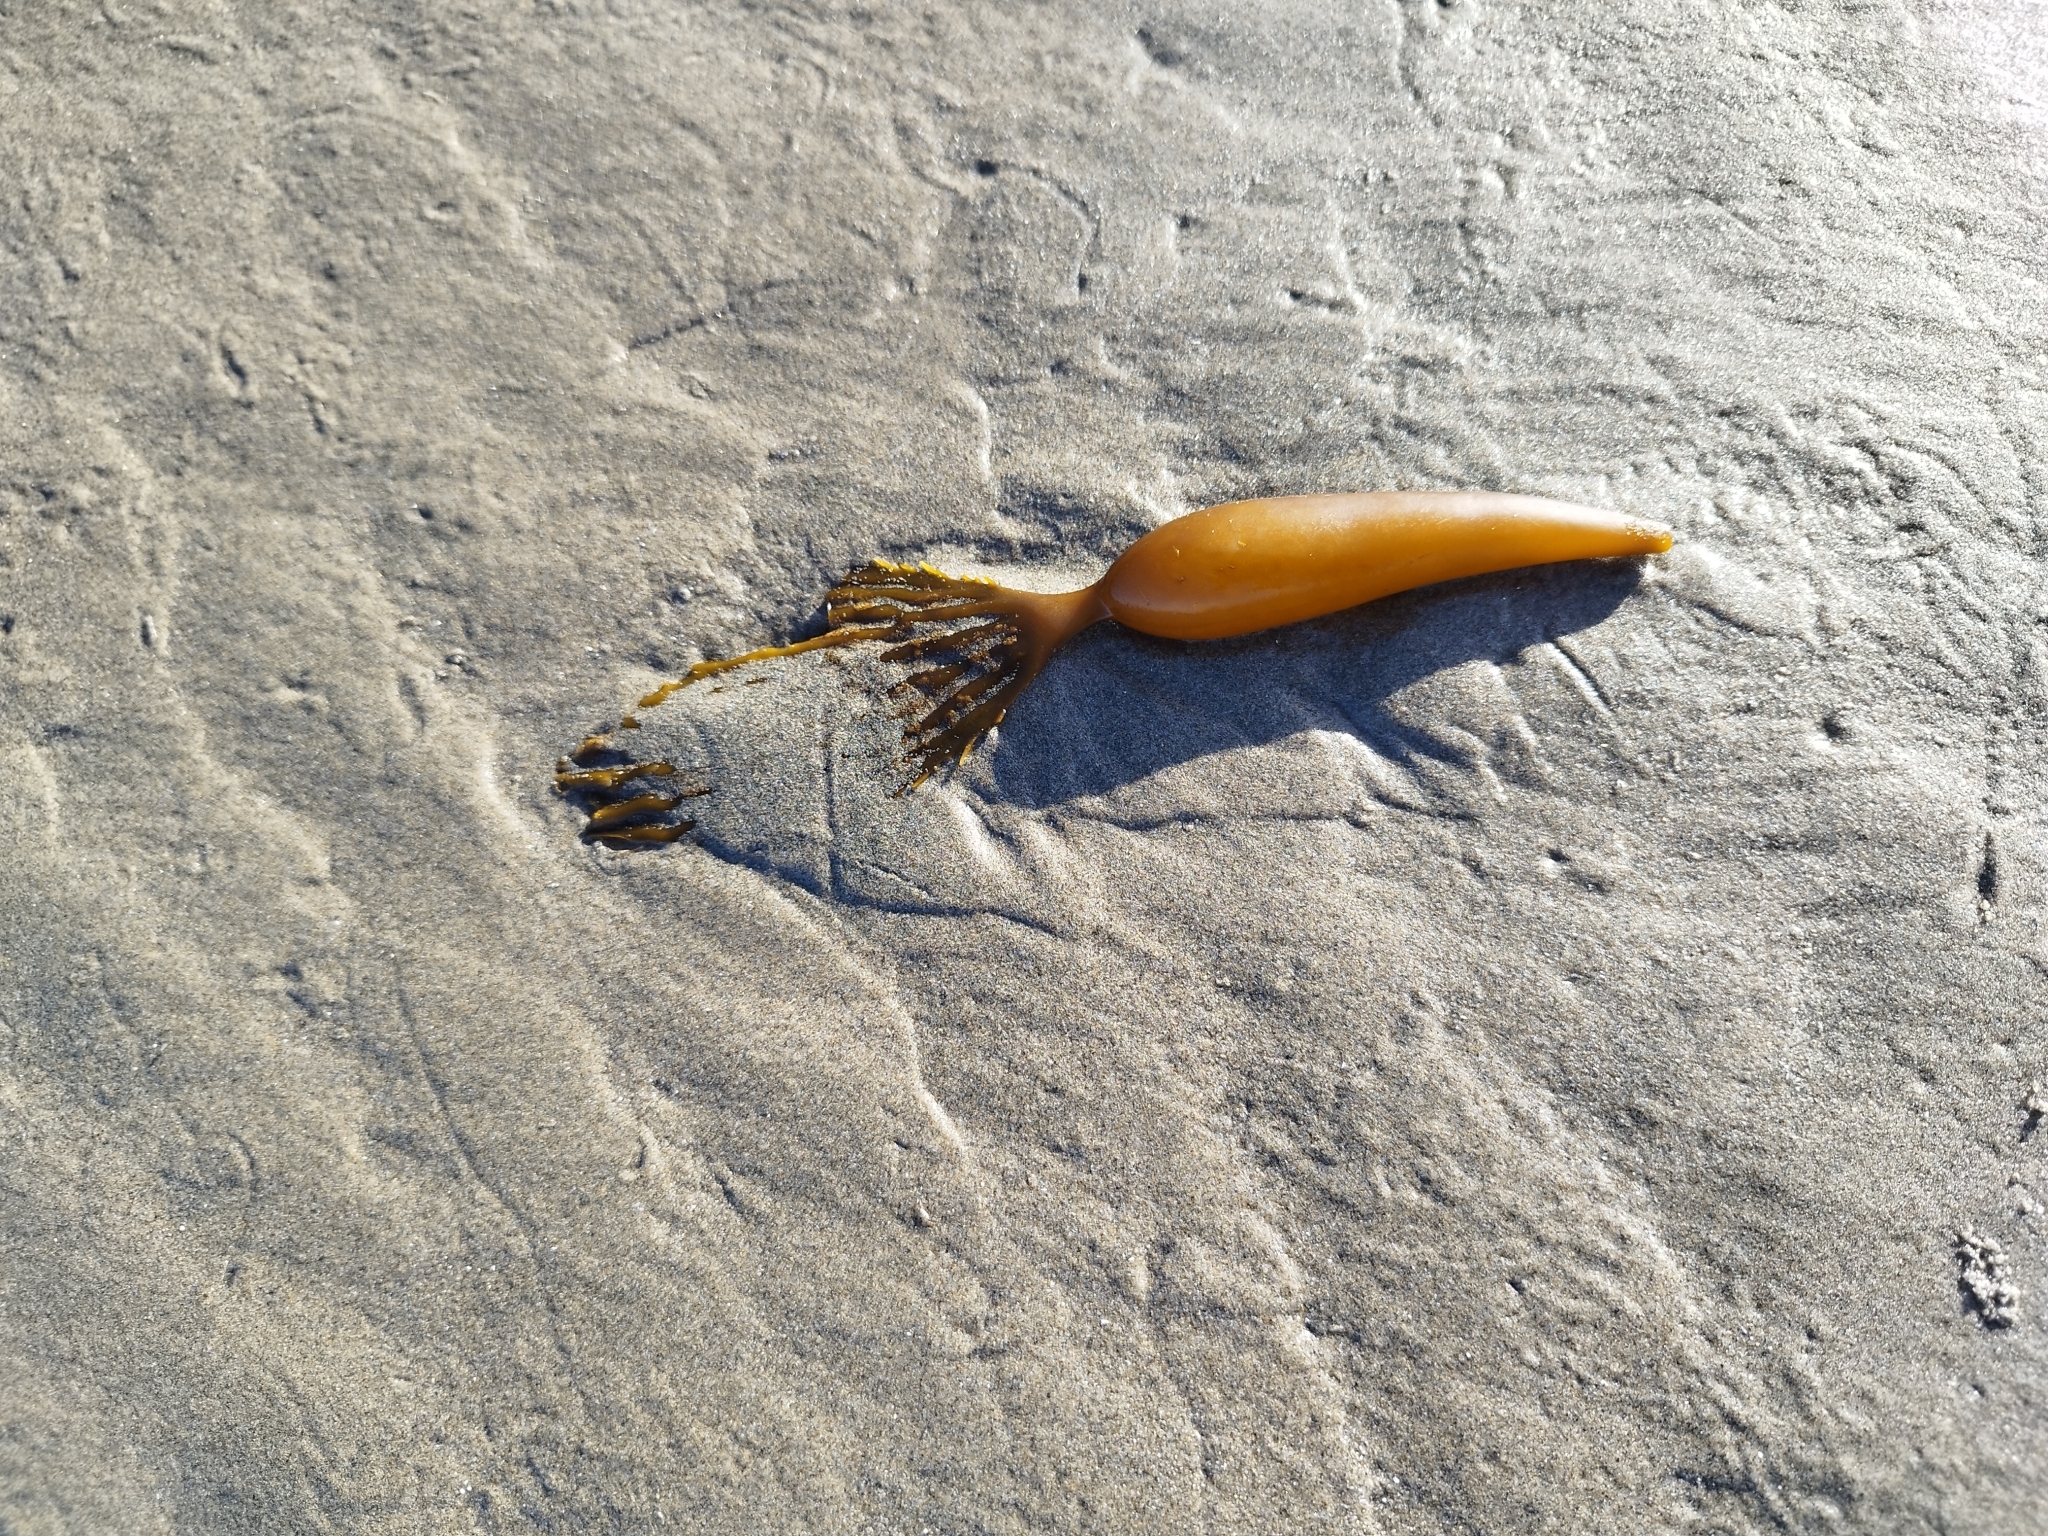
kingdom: Chromista
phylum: Ochrophyta
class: Phaeophyceae
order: Laminariales
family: Laminariaceae
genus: Macrocystis
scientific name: Macrocystis pyrifera
